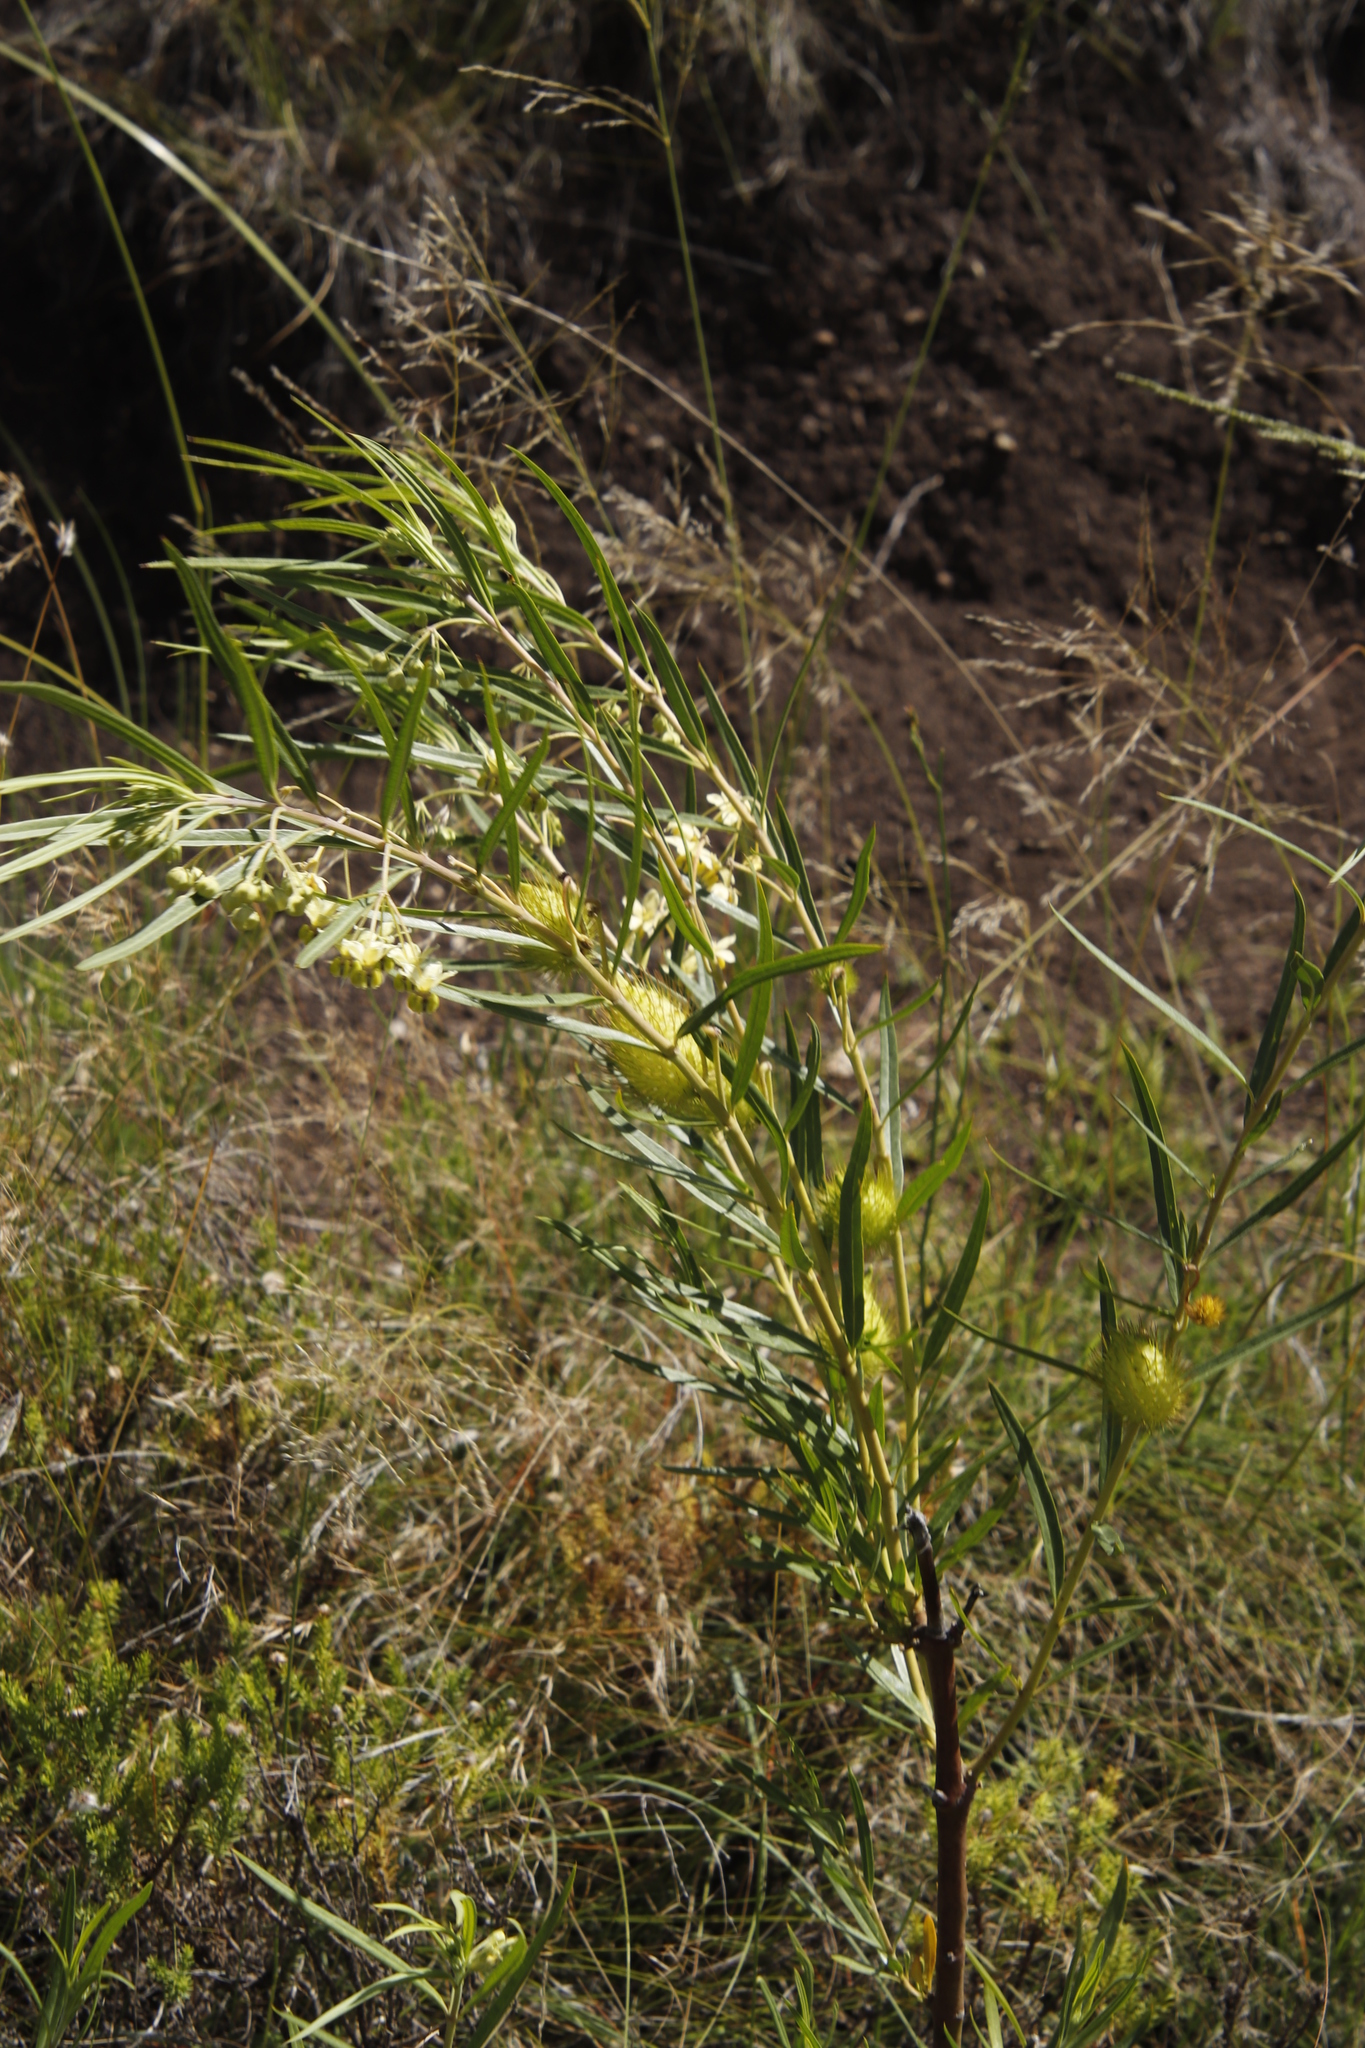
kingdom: Plantae
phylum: Tracheophyta
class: Magnoliopsida
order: Gentianales
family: Apocynaceae
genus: Gomphocarpus
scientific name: Gomphocarpus fruticosus
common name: Milkweed
